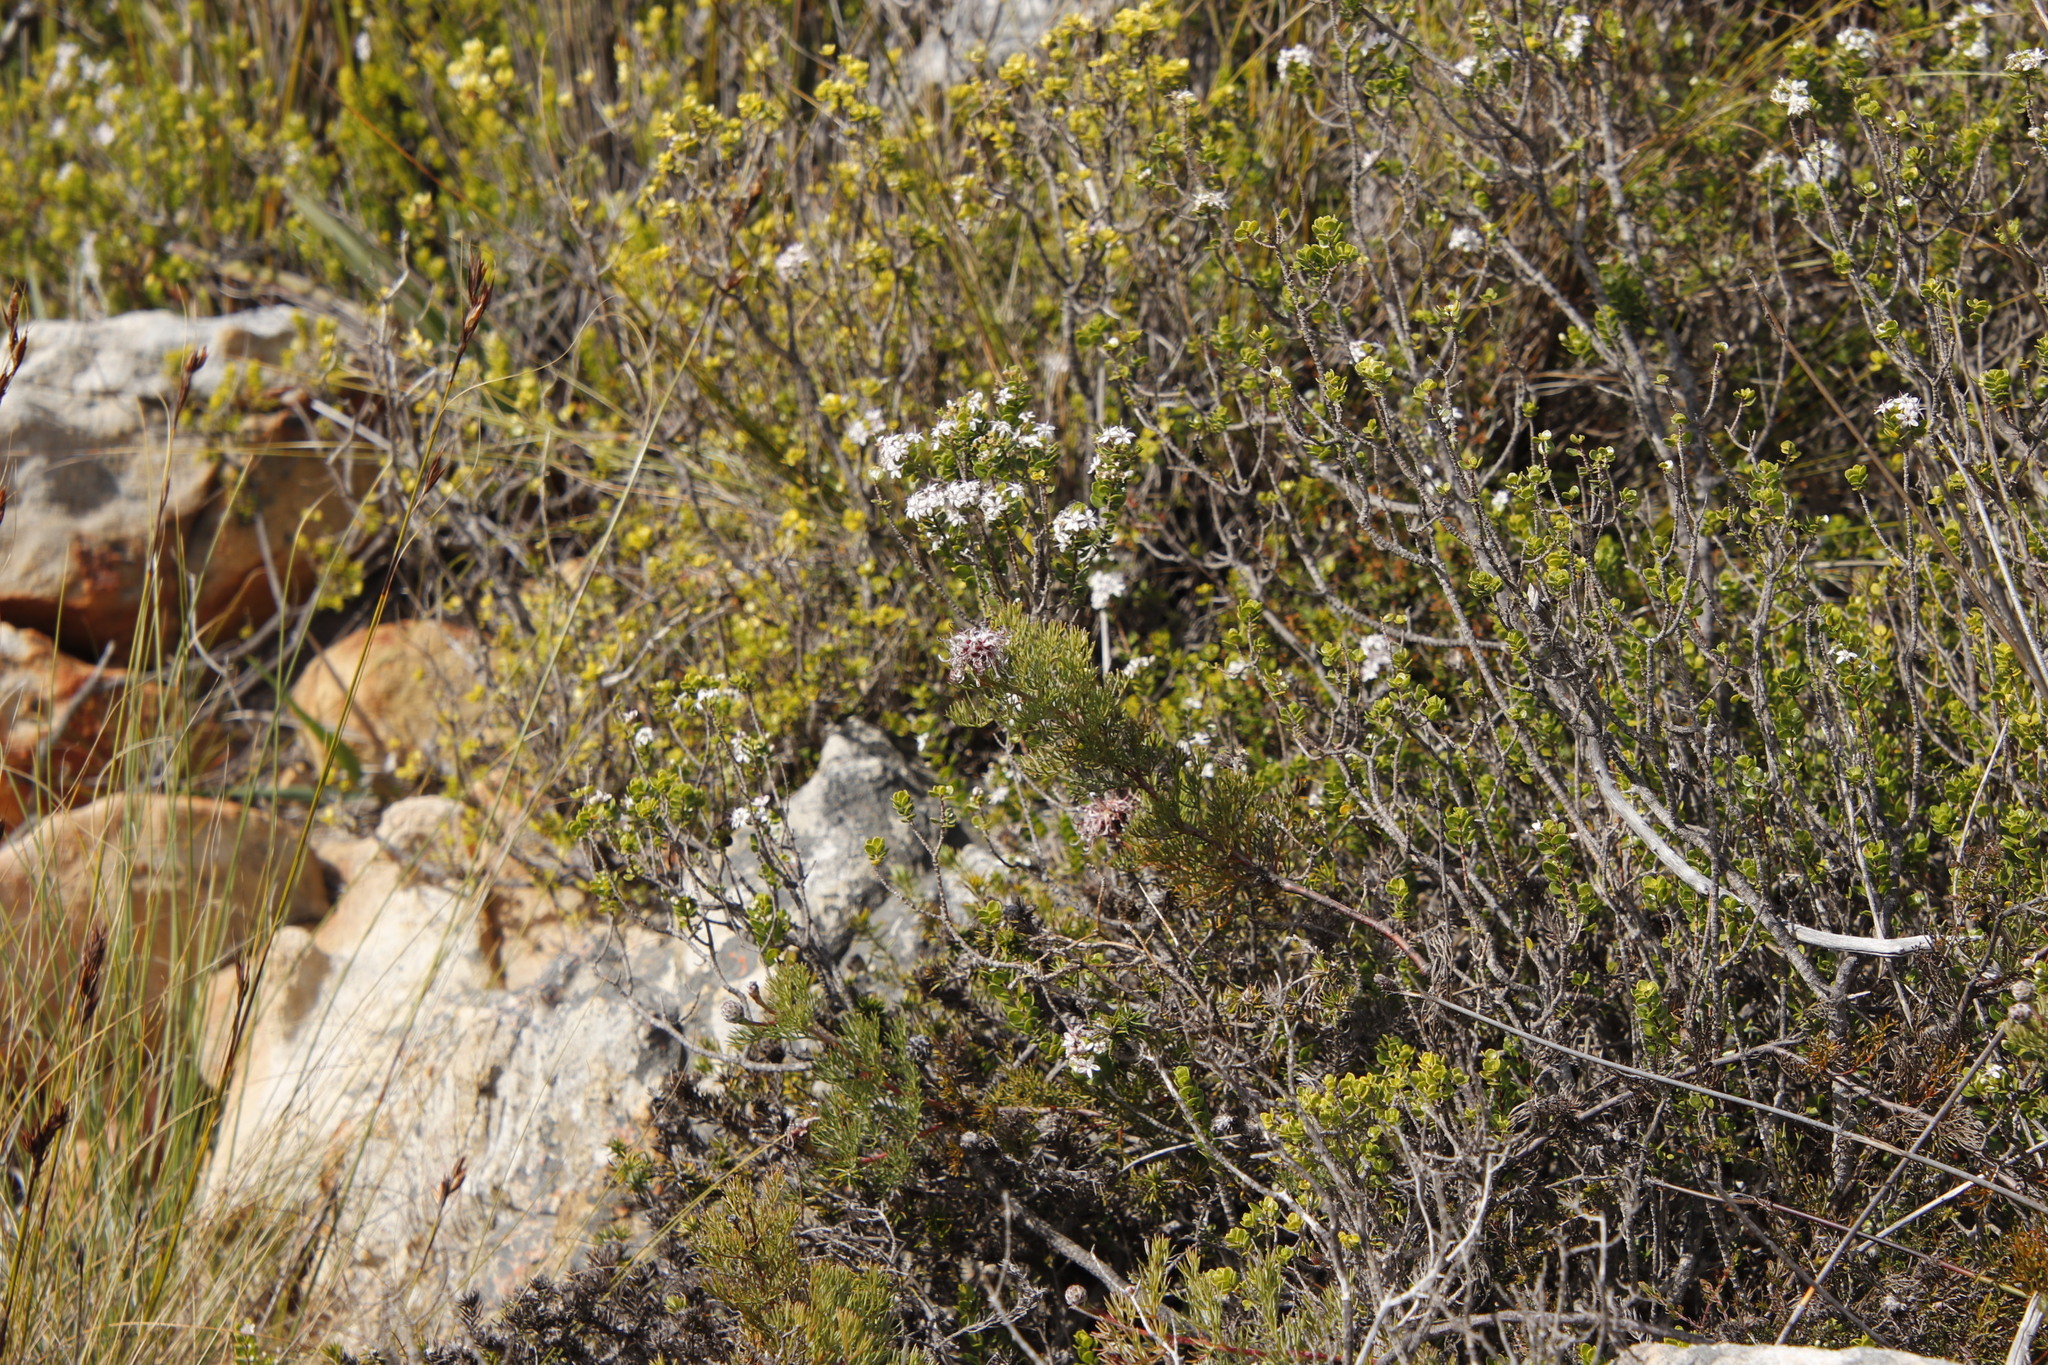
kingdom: Plantae
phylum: Tracheophyta
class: Magnoliopsida
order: Proteales
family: Proteaceae
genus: Serruria
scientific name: Serruria gremialis
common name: Riviersonderend spiderhead
